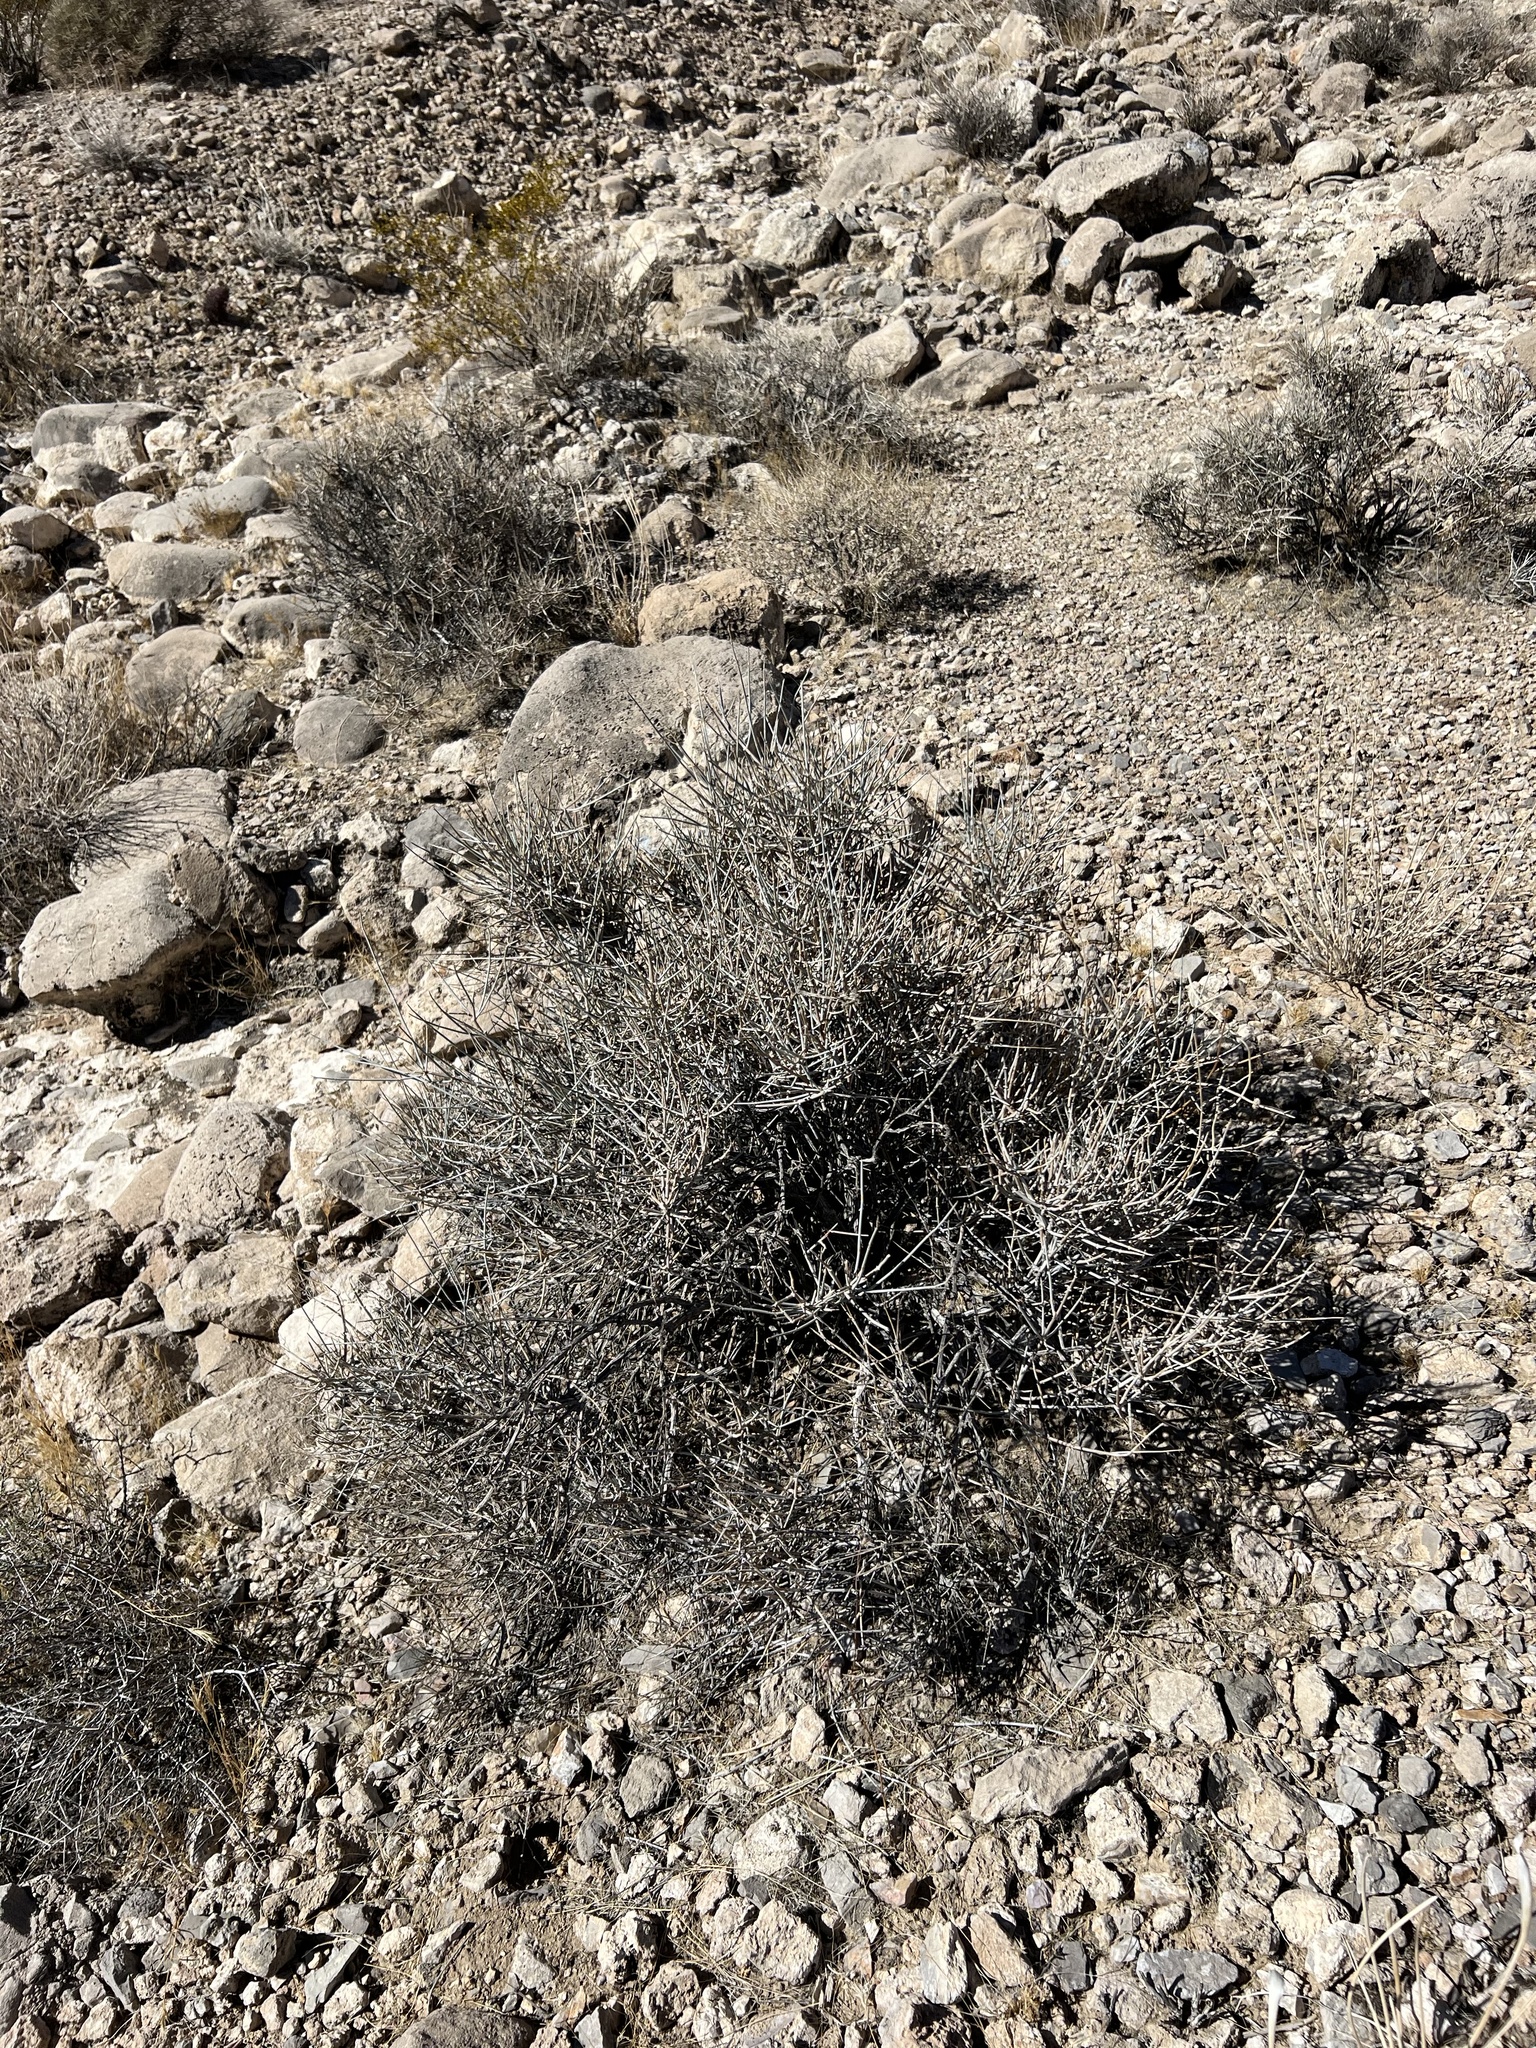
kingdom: Plantae
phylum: Tracheophyta
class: Gnetopsida
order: Ephedrales
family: Ephedraceae
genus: Ephedra
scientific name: Ephedra nevadensis
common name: Gray ephedra
